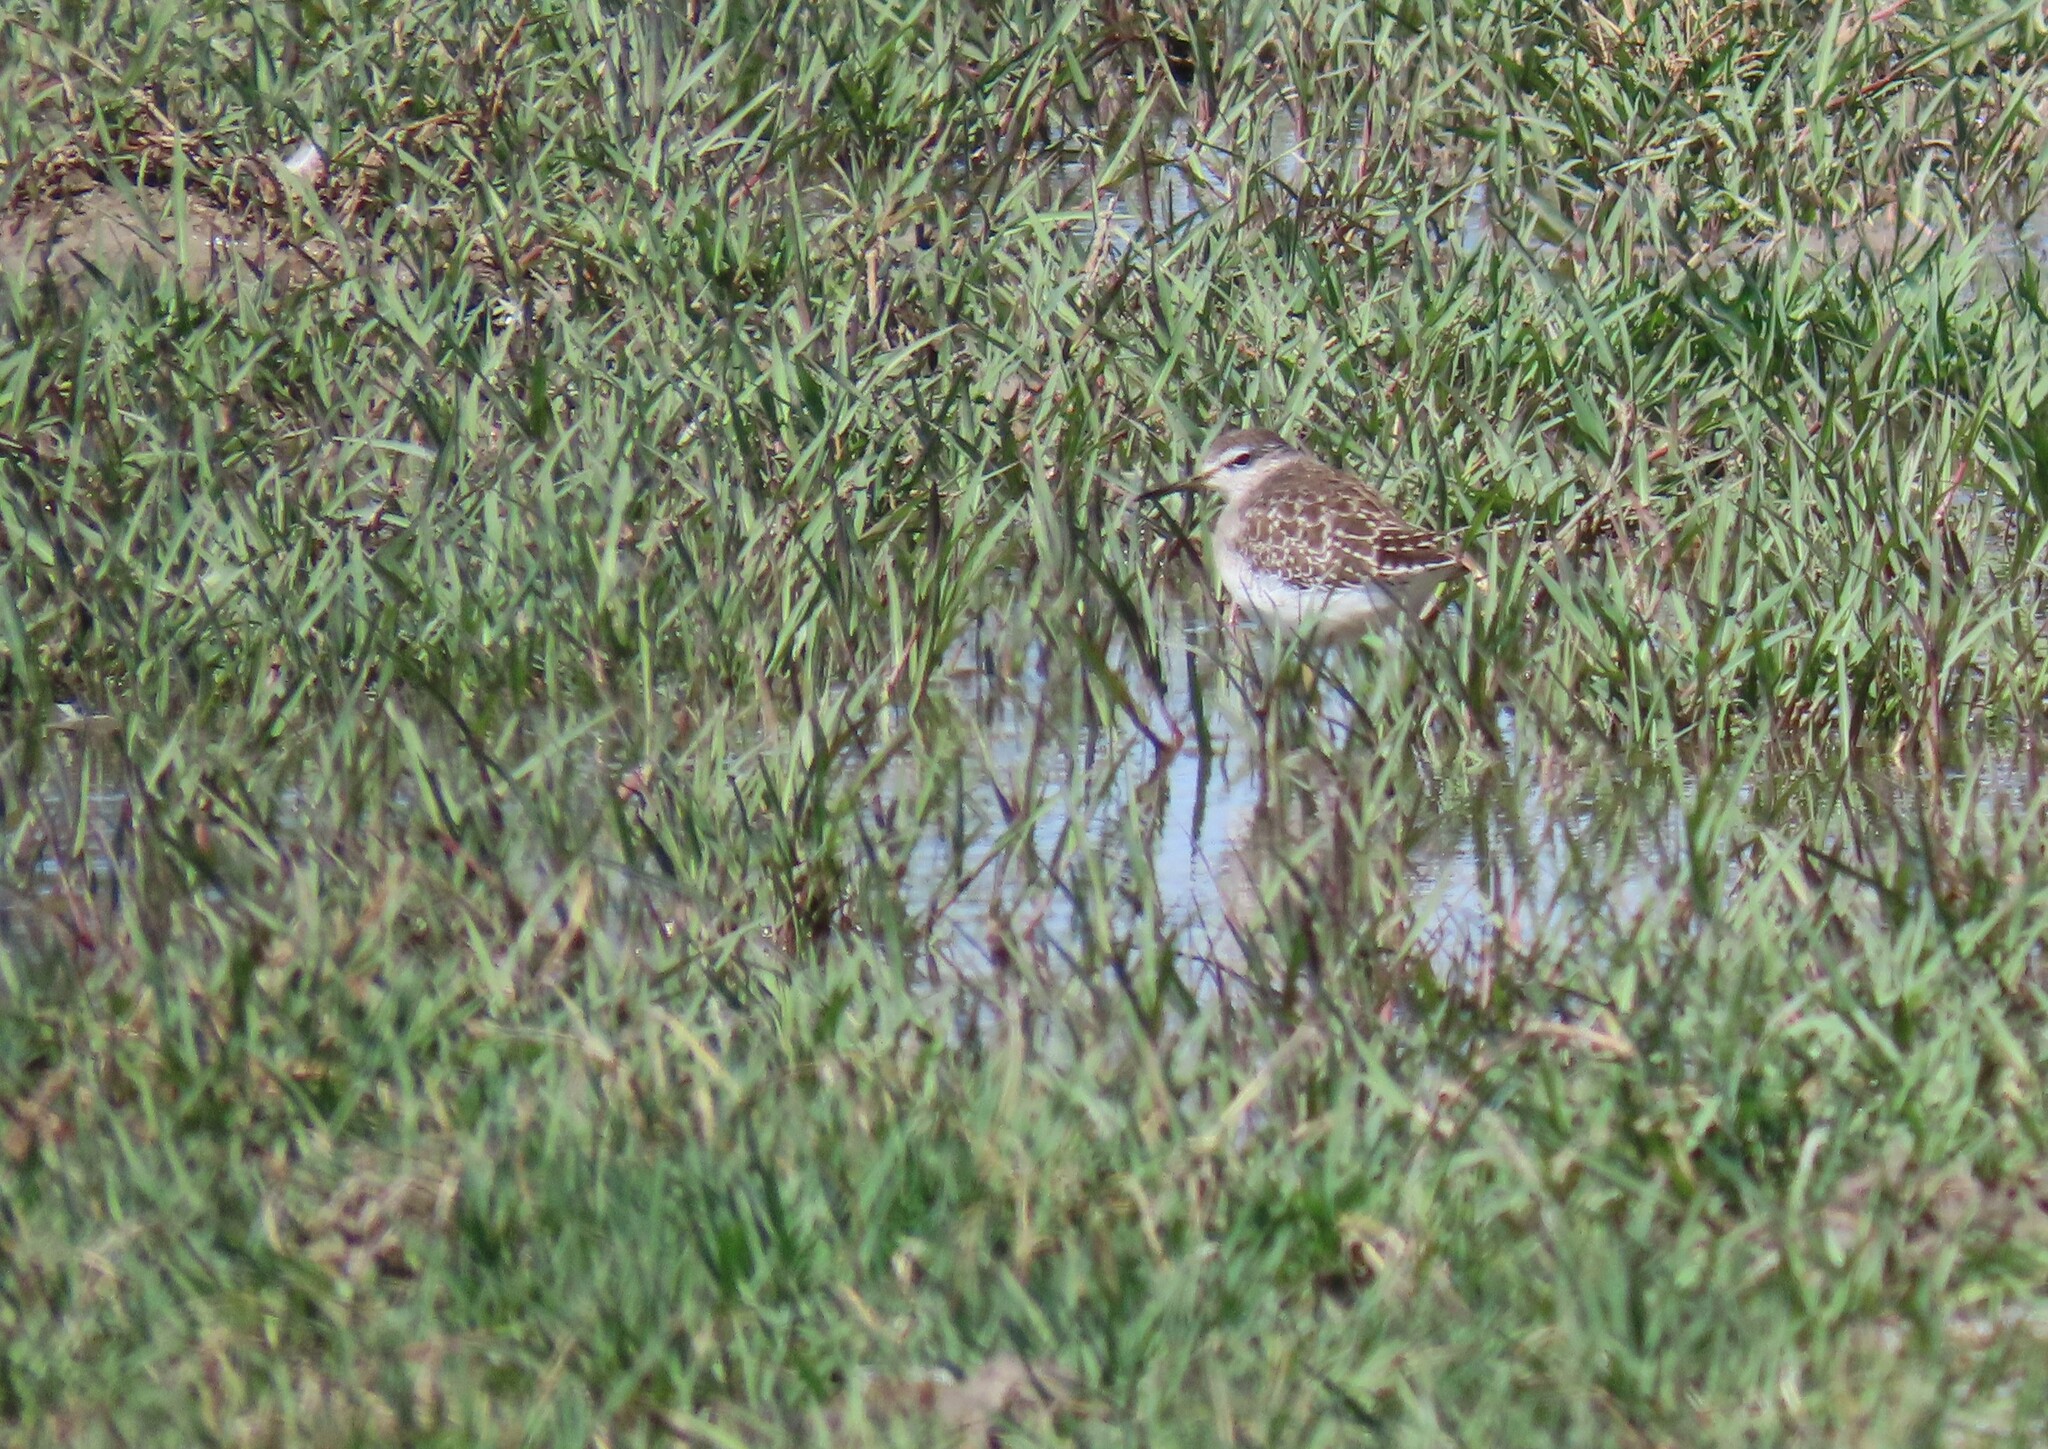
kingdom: Animalia
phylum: Chordata
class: Aves
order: Charadriiformes
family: Scolopacidae
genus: Tringa
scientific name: Tringa glareola
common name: Wood sandpiper
